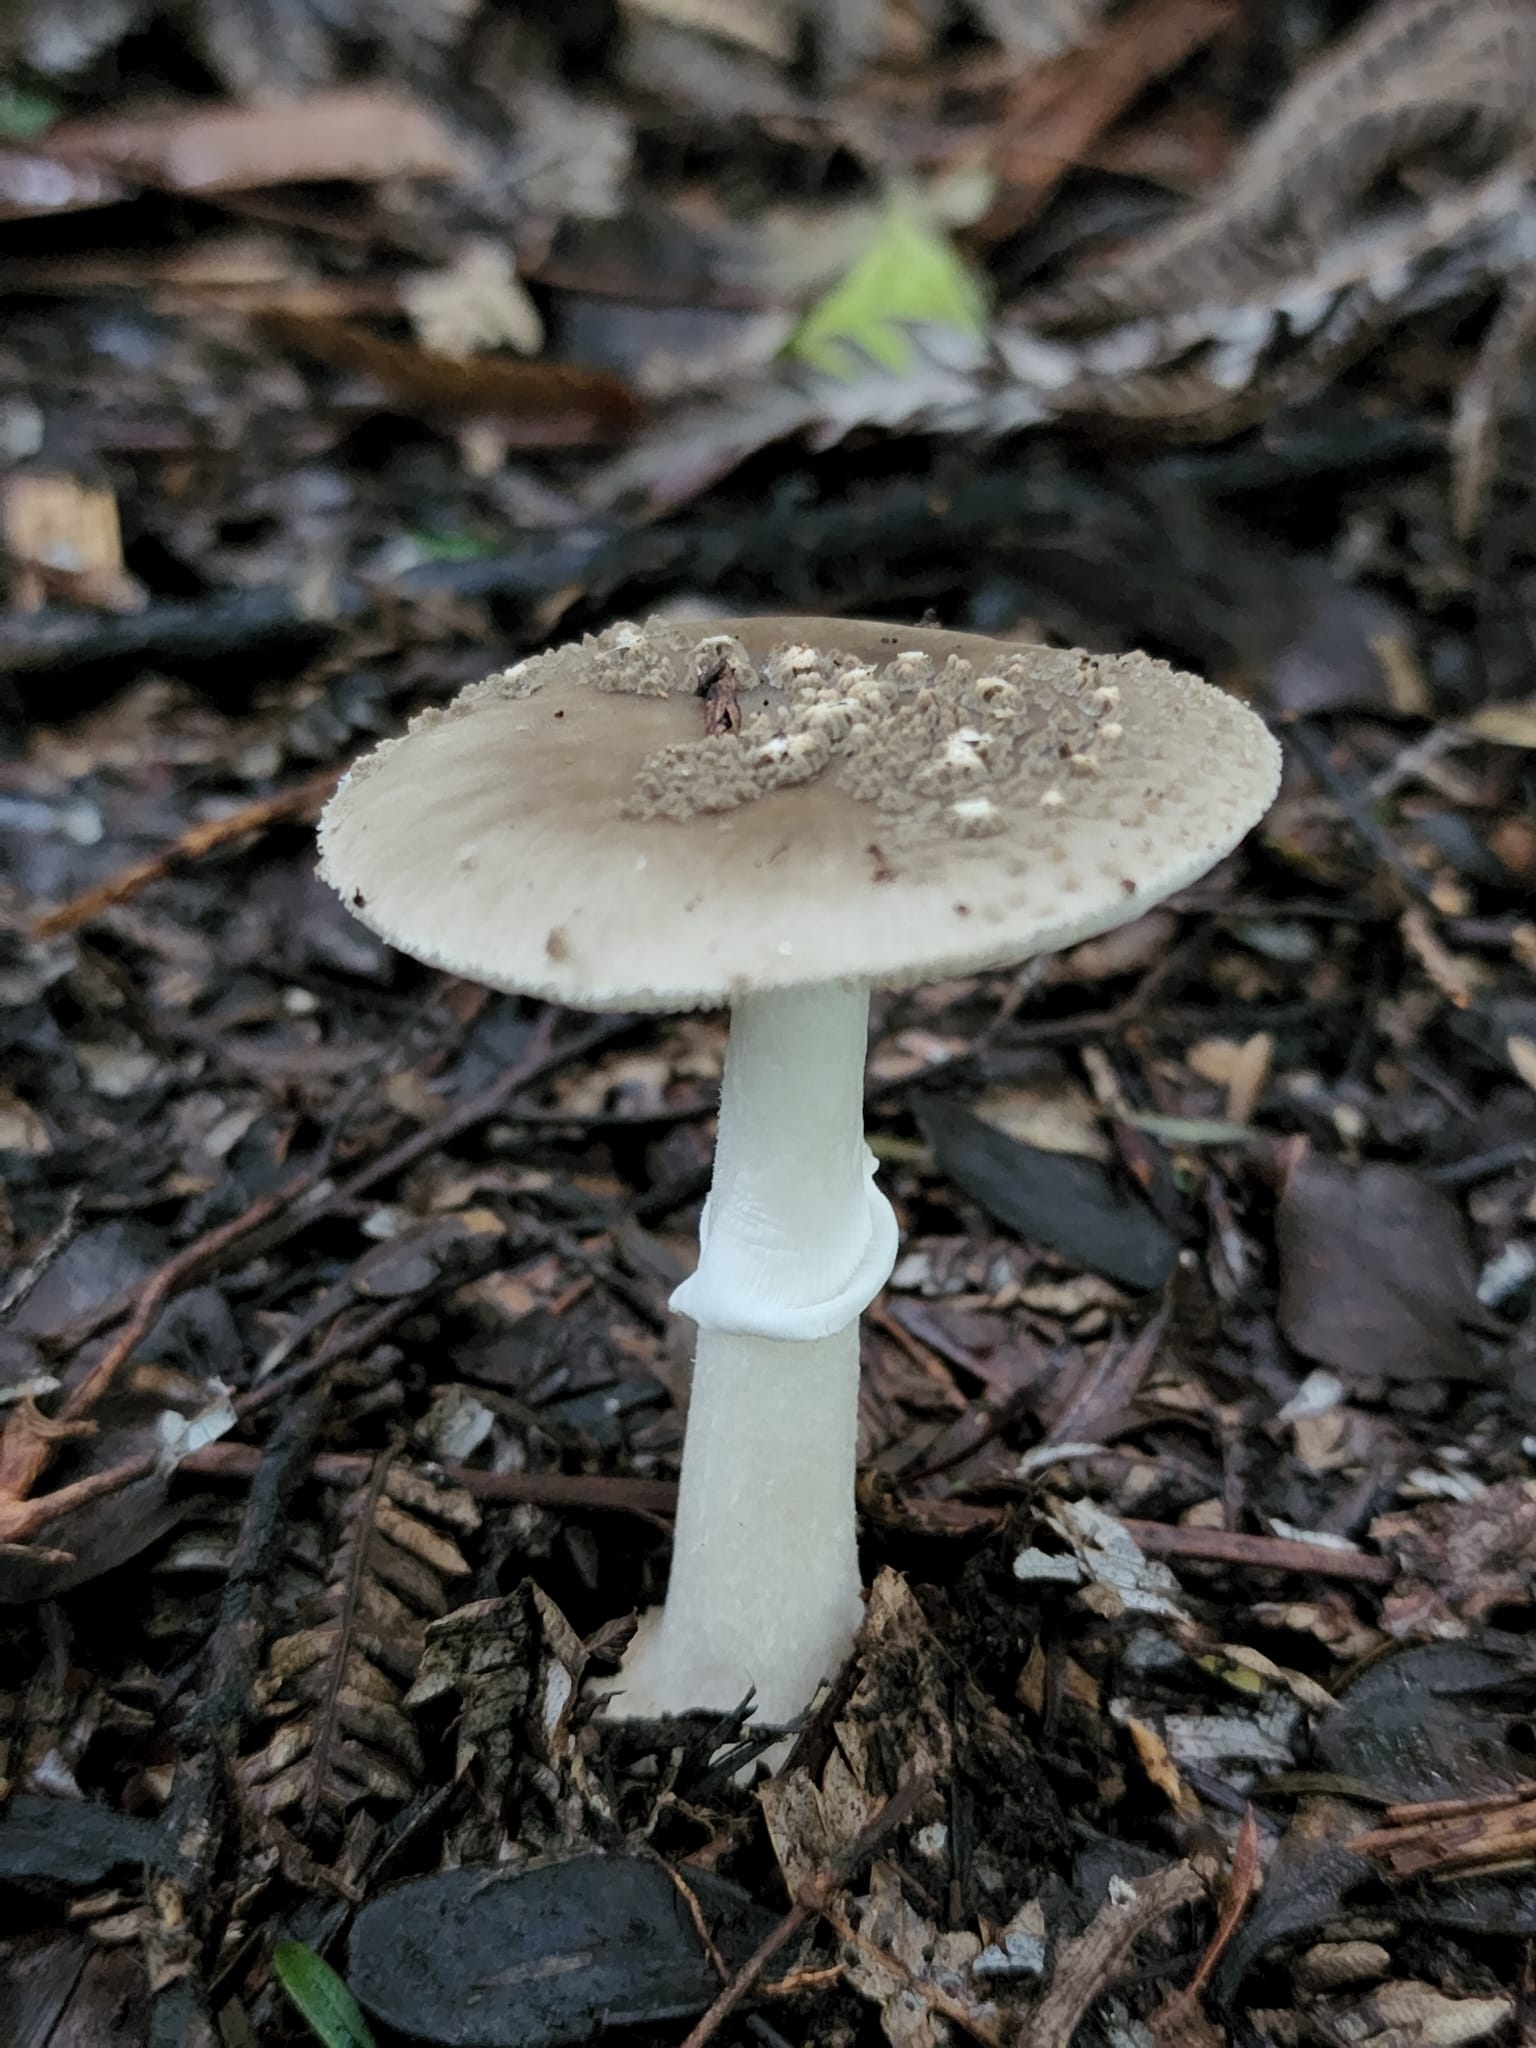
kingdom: Fungi
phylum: Basidiomycota
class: Agaricomycetes
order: Agaricales
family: Amanitaceae
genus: Amanita
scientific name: Amanita australis
